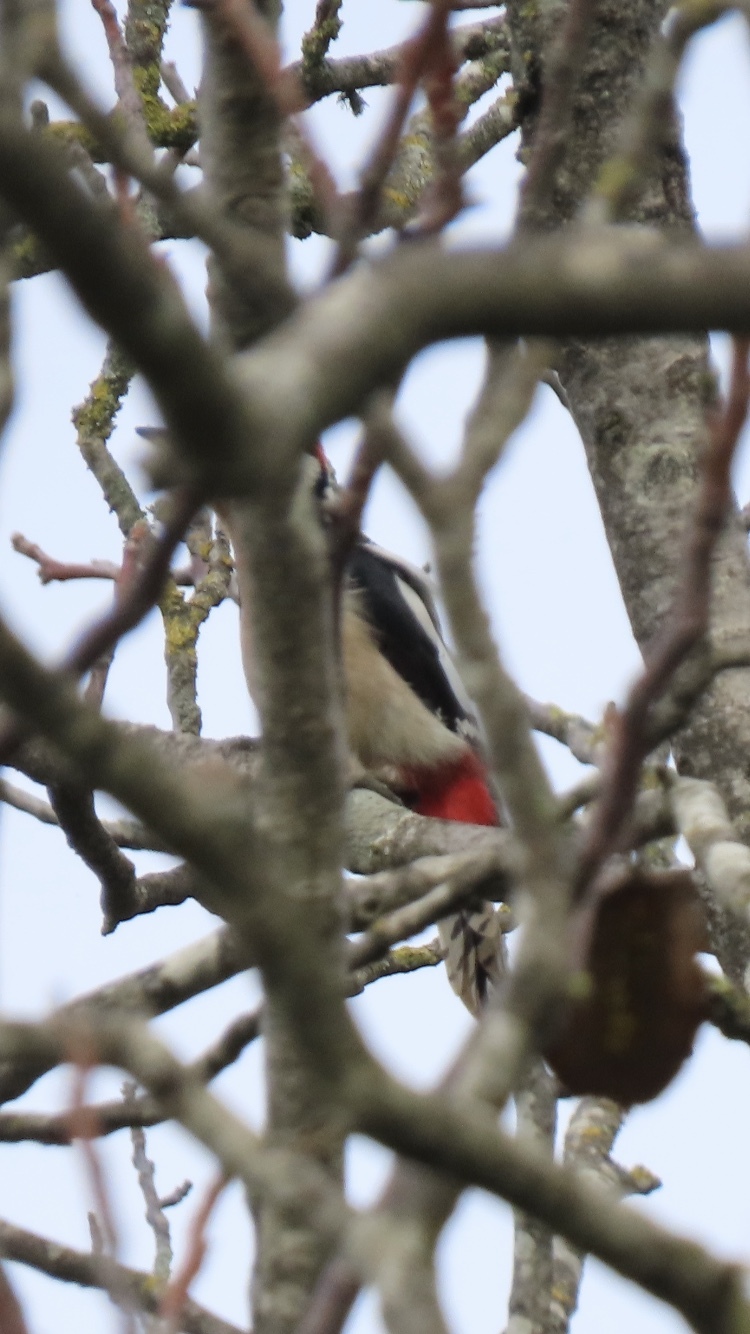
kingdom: Animalia
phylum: Chordata
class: Aves
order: Piciformes
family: Picidae
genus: Dendrocopos
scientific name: Dendrocopos major
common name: Great spotted woodpecker
